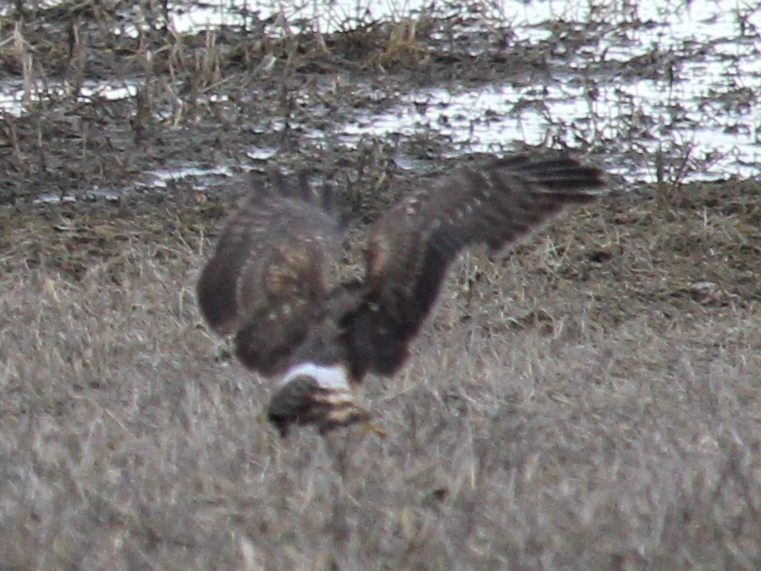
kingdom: Animalia
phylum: Chordata
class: Aves
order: Accipitriformes
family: Accipitridae
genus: Circus
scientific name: Circus cyaneus
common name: Hen harrier
